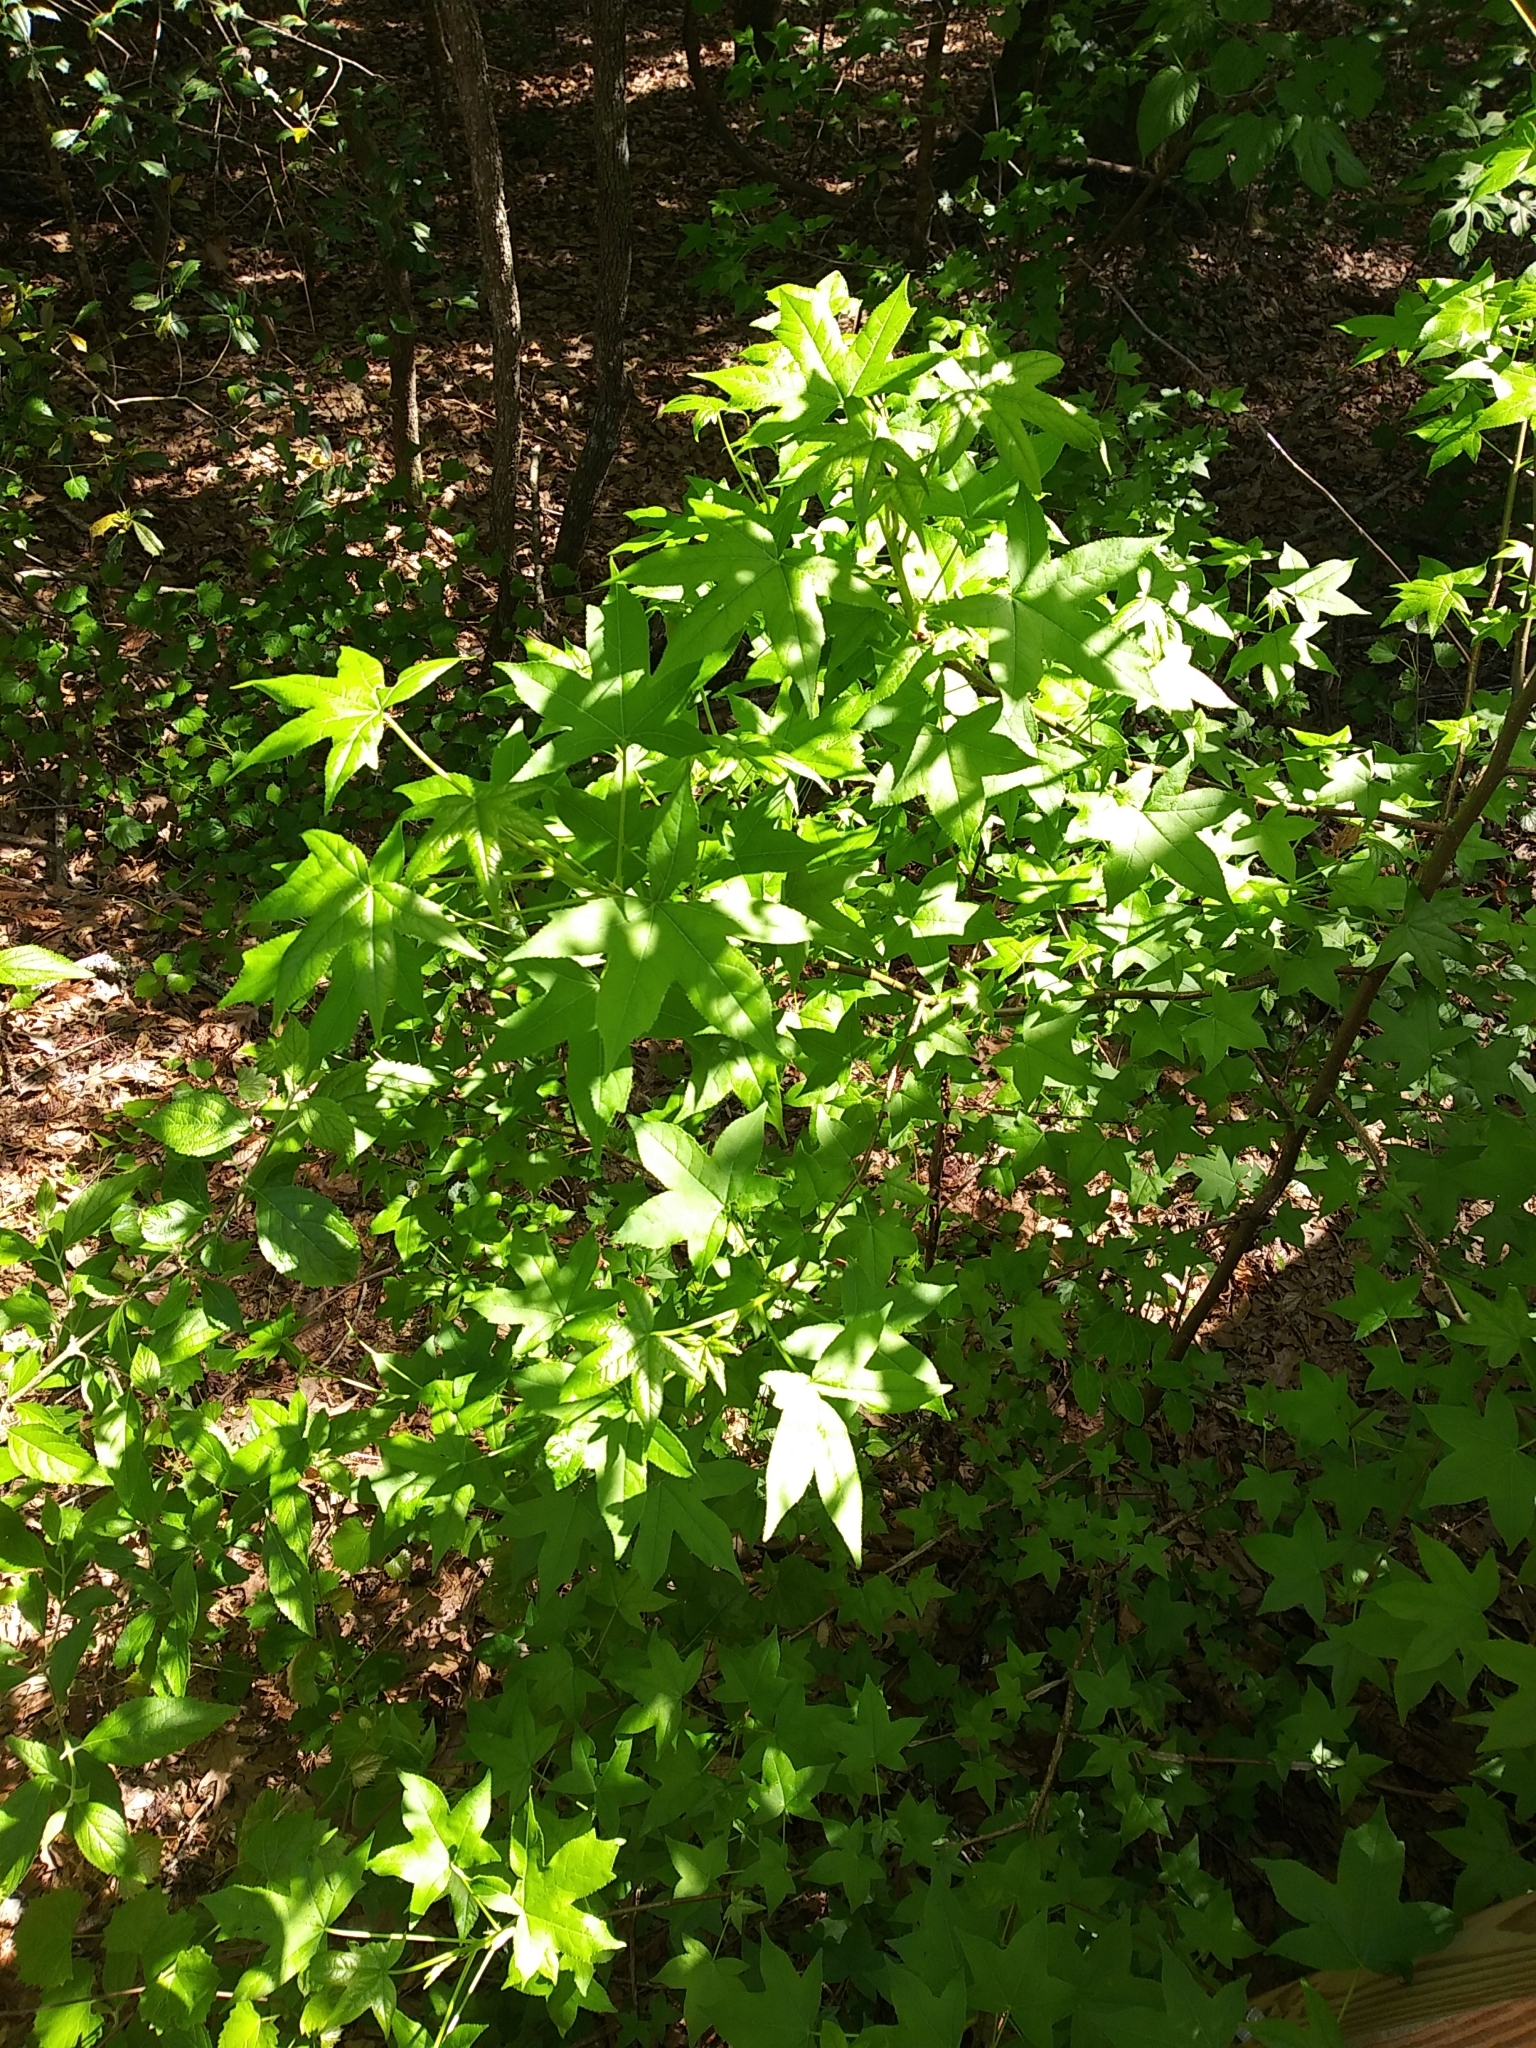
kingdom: Plantae
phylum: Tracheophyta
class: Magnoliopsida
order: Saxifragales
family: Altingiaceae
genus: Liquidambar
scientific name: Liquidambar styraciflua
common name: Sweet gum
